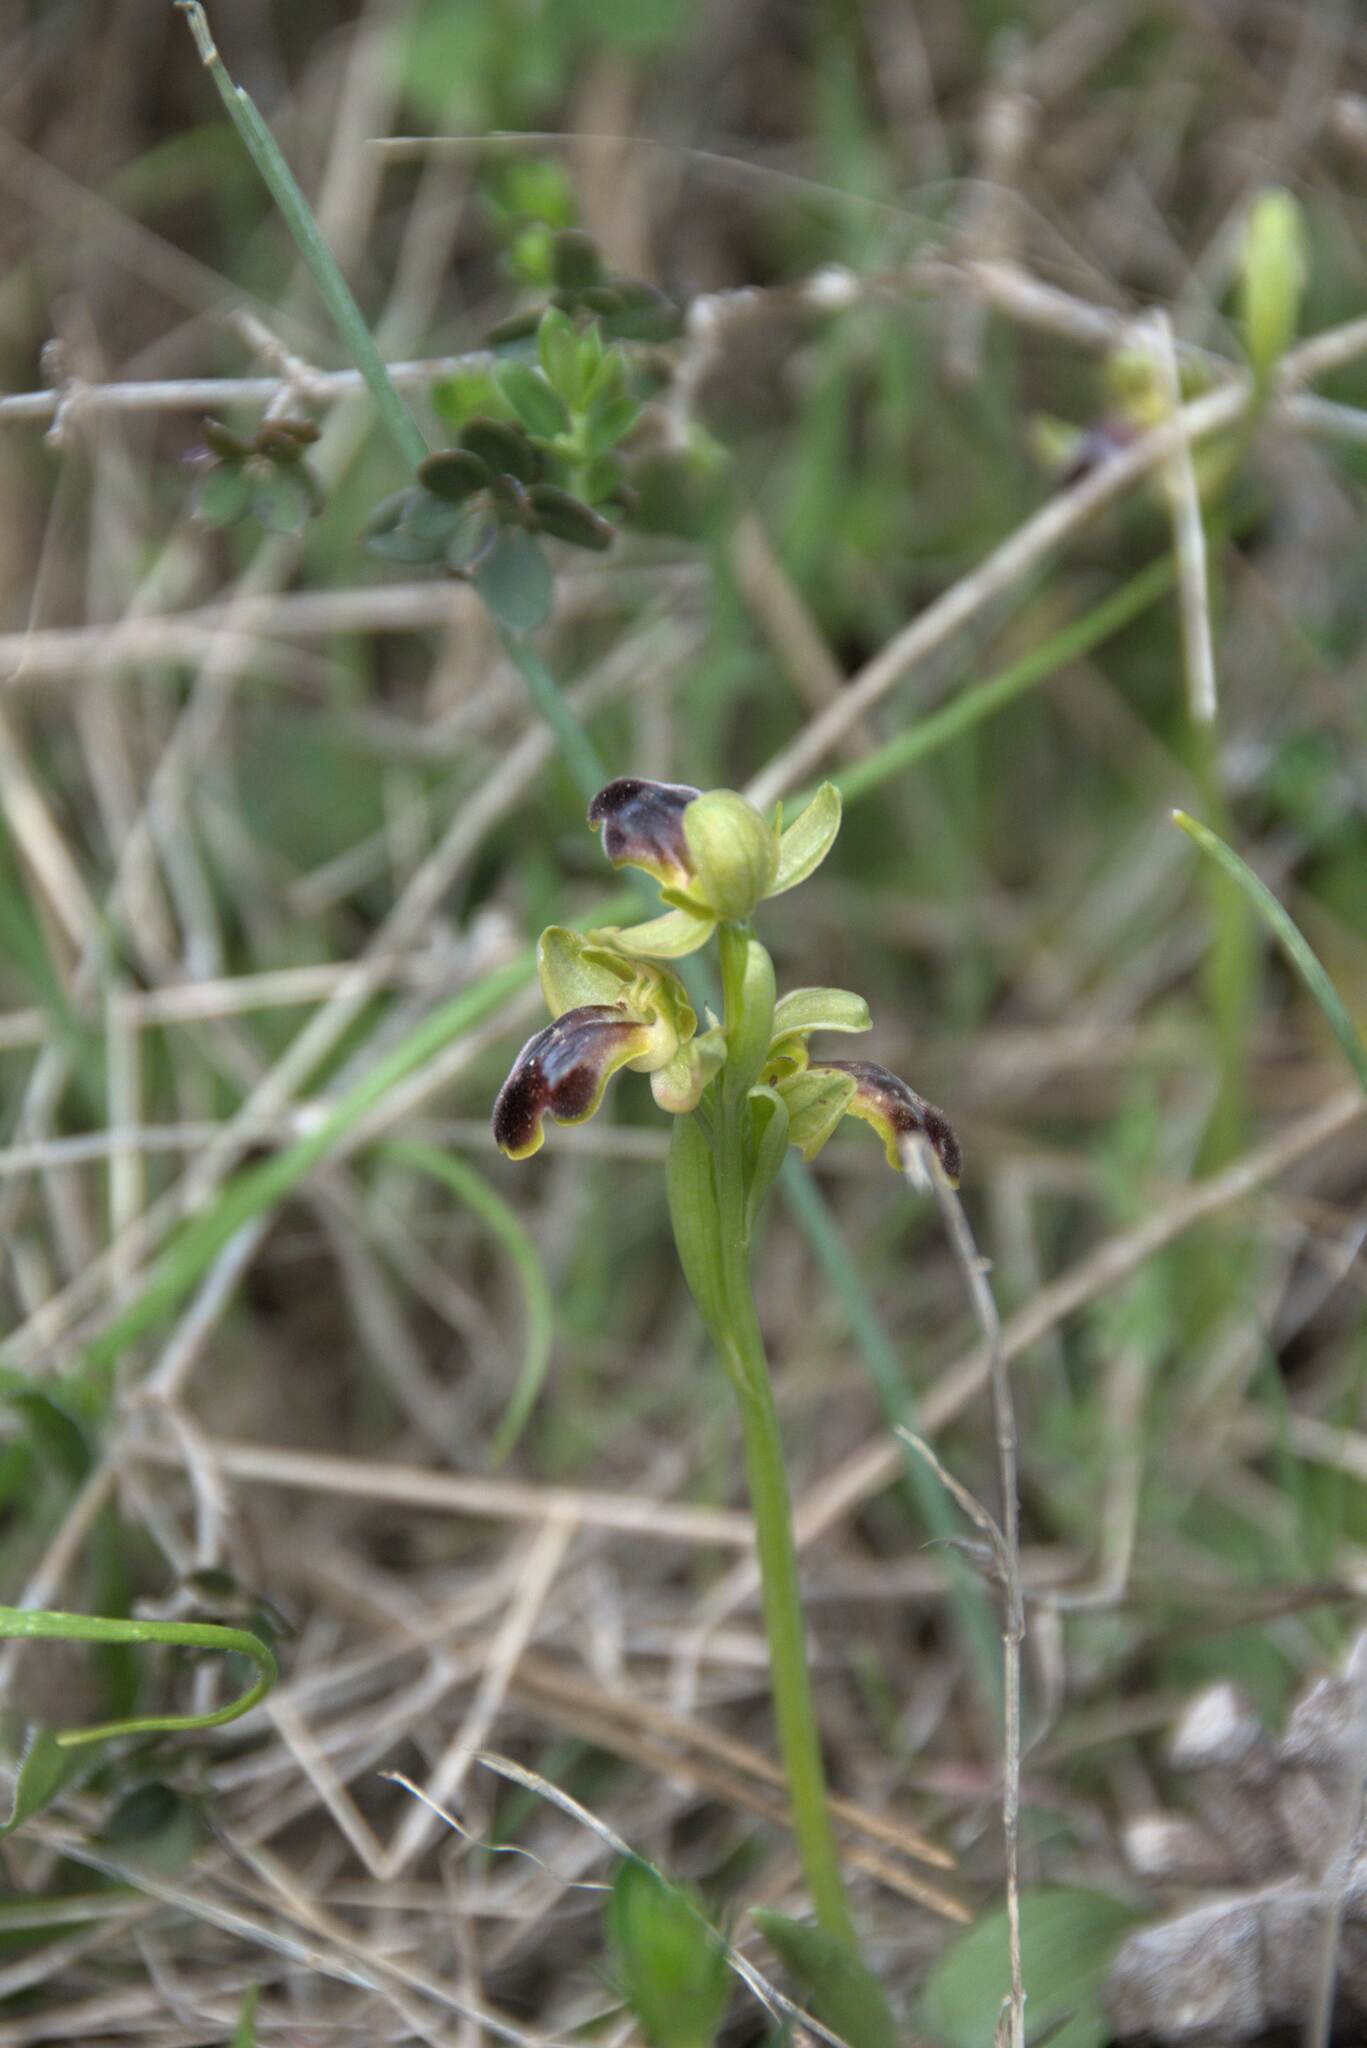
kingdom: Plantae
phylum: Tracheophyta
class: Liliopsida
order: Asparagales
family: Orchidaceae
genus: Ophrys
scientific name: Ophrys fusca
